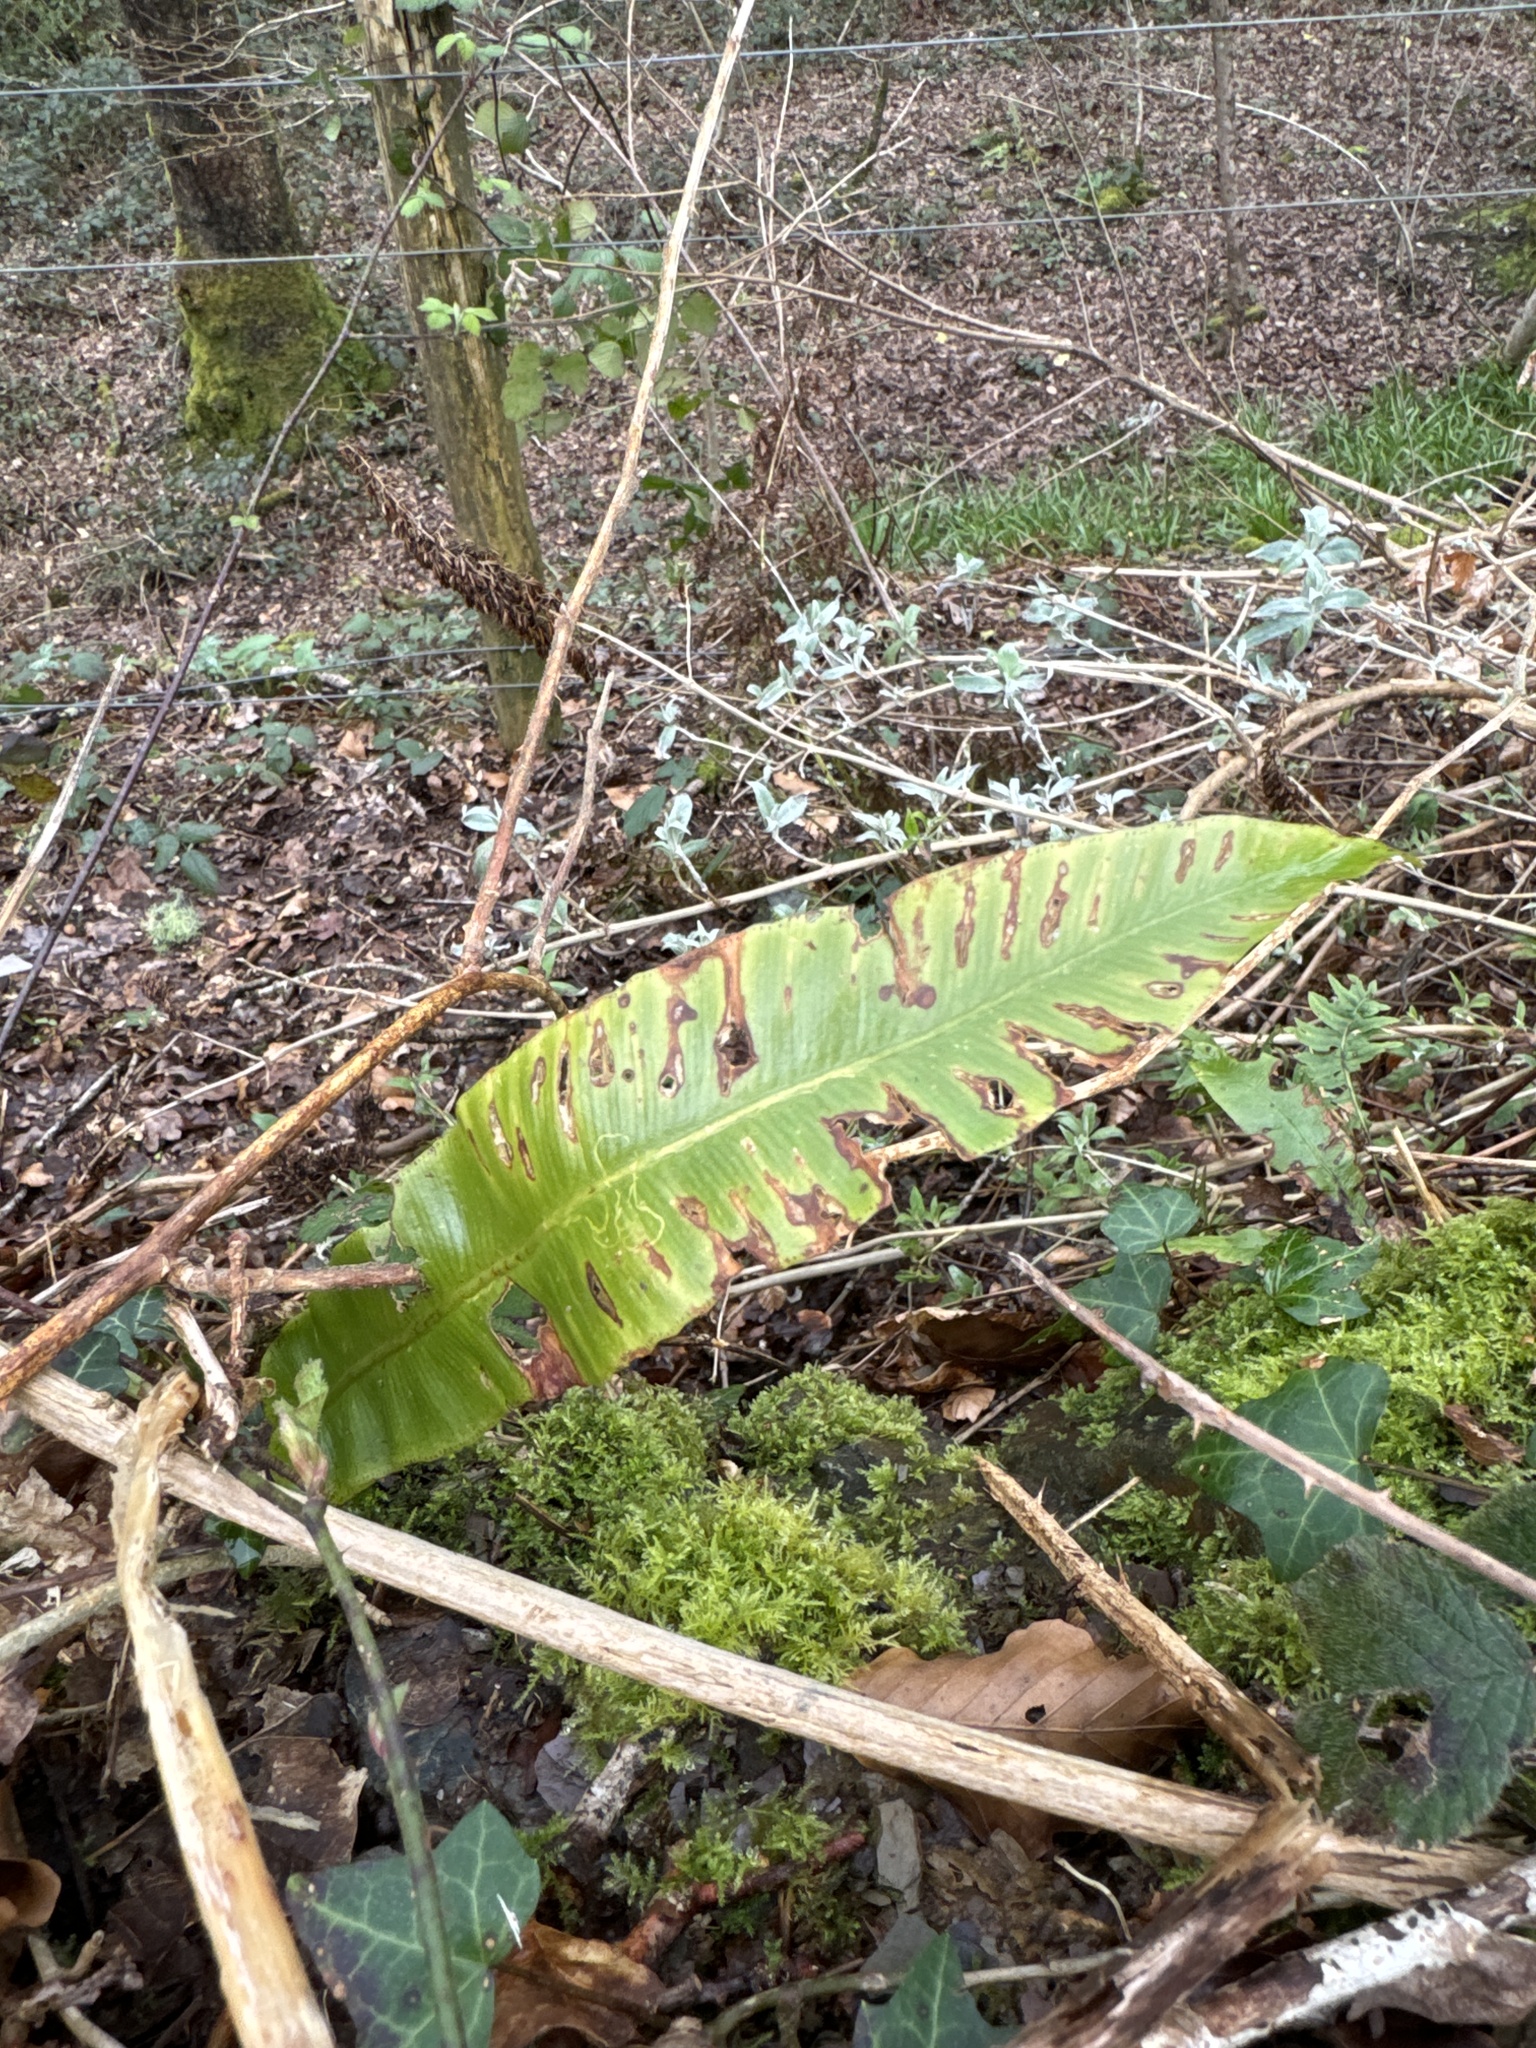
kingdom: Plantae
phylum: Tracheophyta
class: Polypodiopsida
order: Polypodiales
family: Aspleniaceae
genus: Asplenium
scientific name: Asplenium scolopendrium
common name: Hart's-tongue fern
